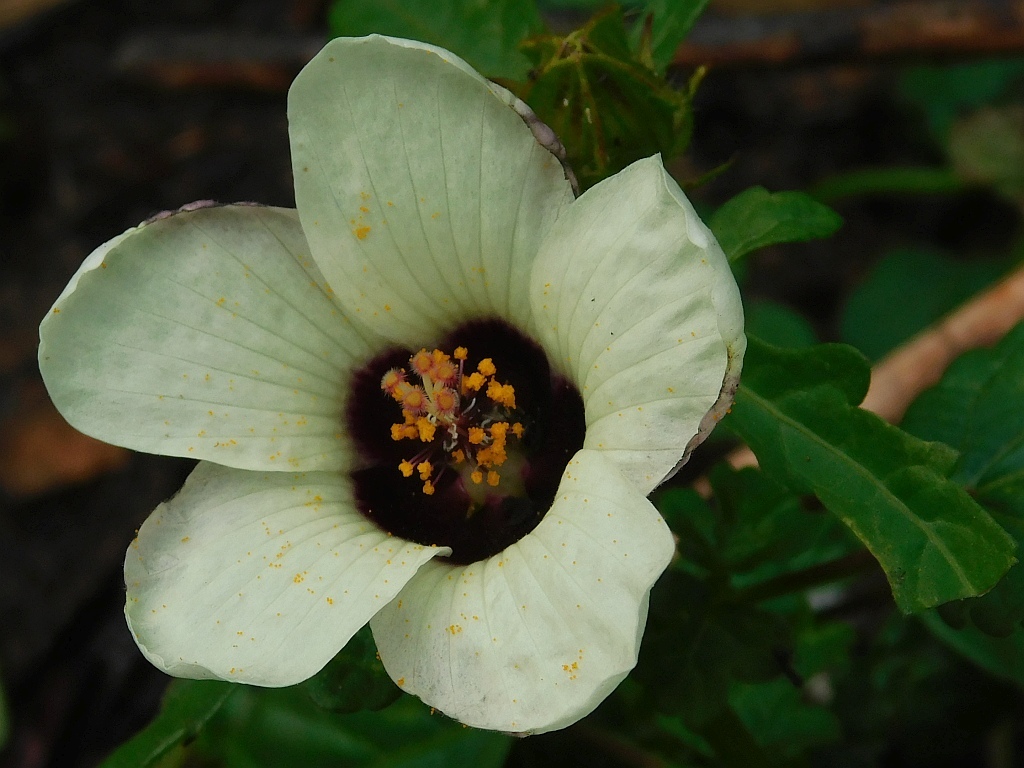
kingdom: Plantae
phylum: Tracheophyta
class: Magnoliopsida
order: Malvales
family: Malvaceae
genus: Hibiscus
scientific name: Hibiscus trionum
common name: Bladder ketmia
